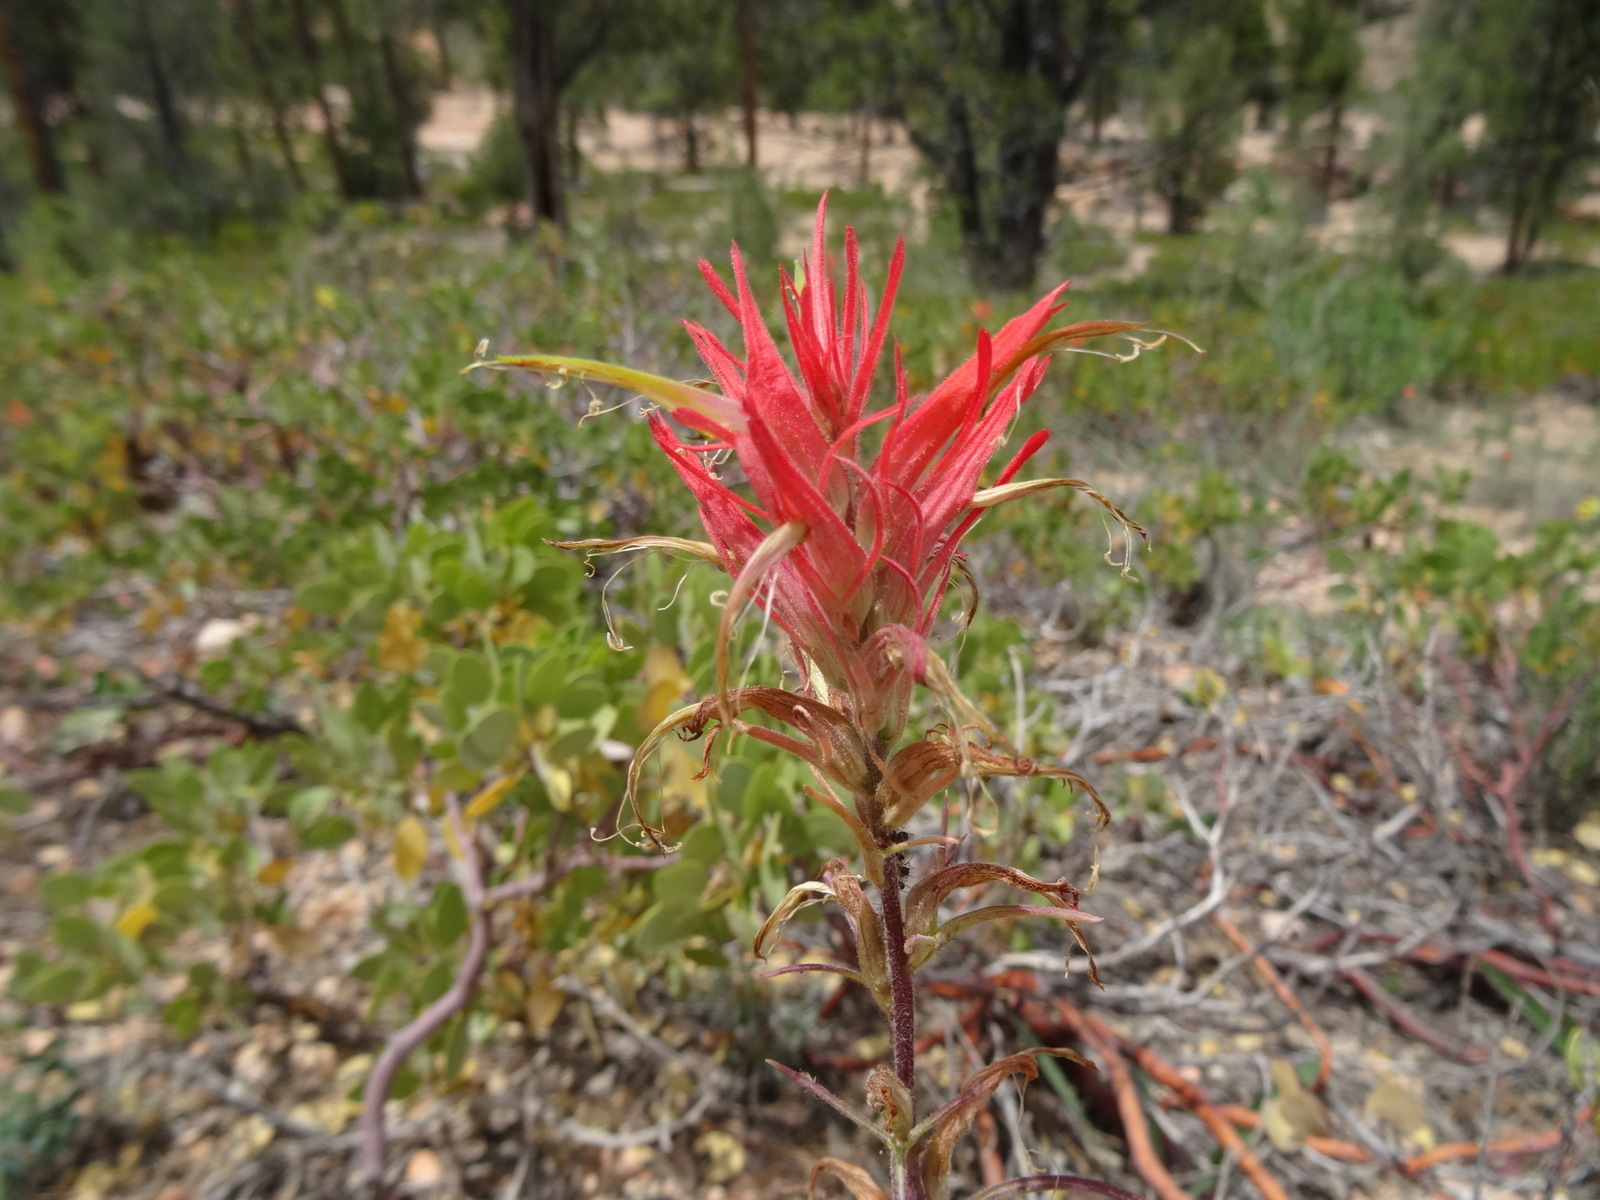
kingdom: Plantae
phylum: Tracheophyta
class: Magnoliopsida
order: Lamiales
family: Orobanchaceae
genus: Castilleja
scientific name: Castilleja linariifolia
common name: Wyoming paintbrush
